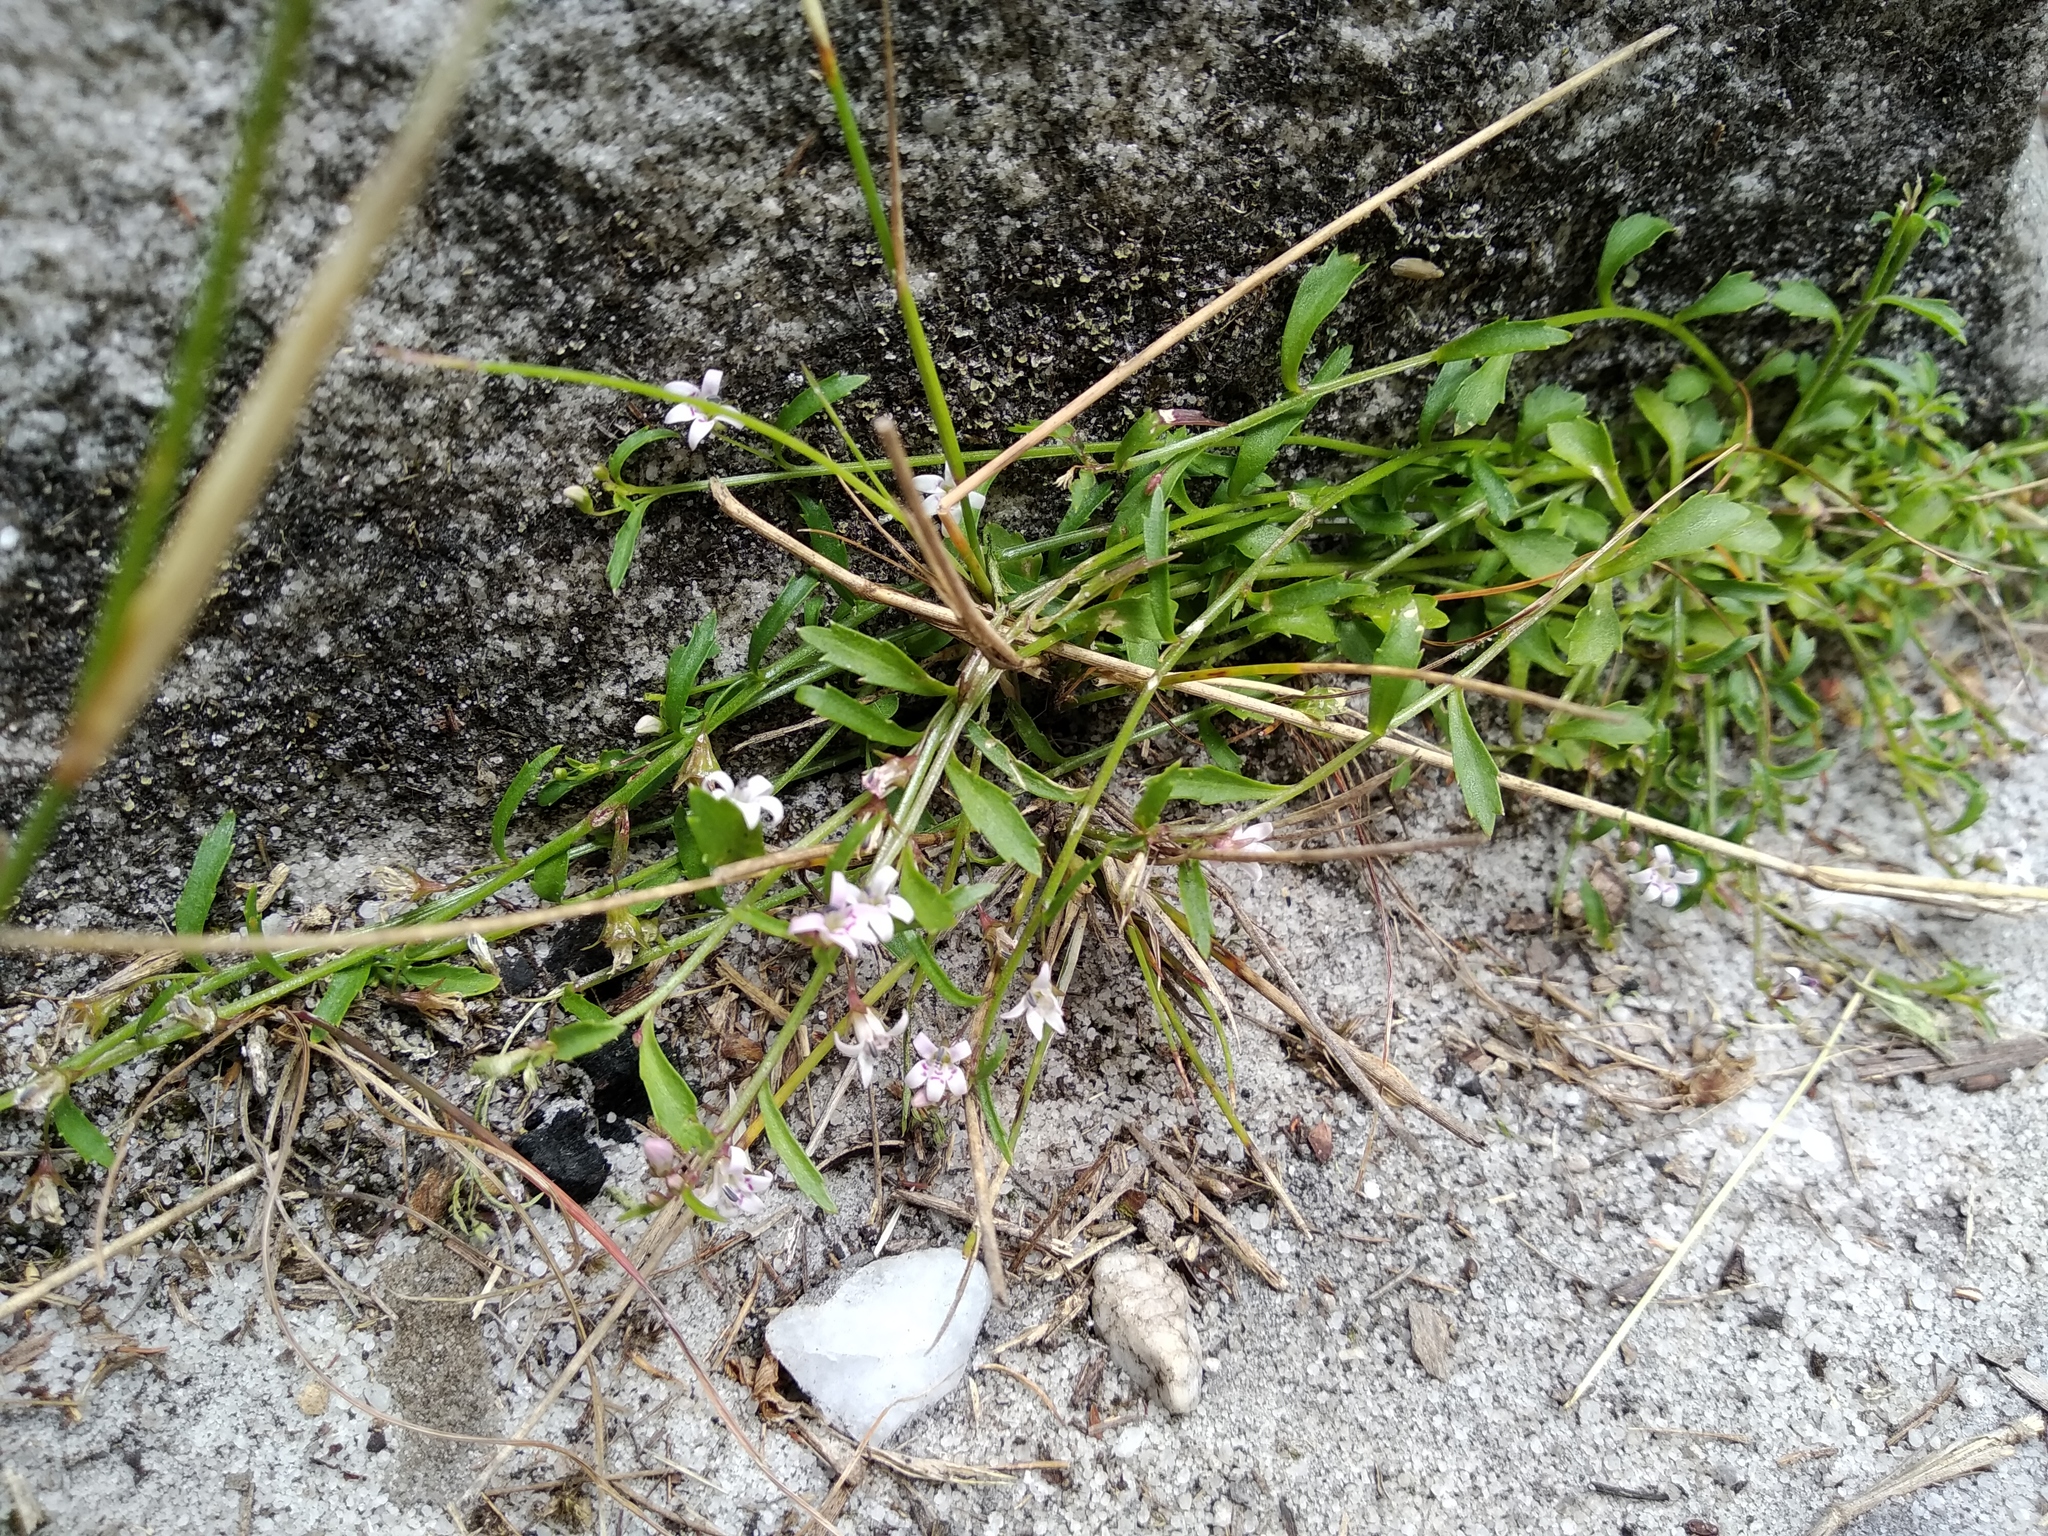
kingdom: Plantae
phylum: Tracheophyta
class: Magnoliopsida
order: Asterales
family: Campanulaceae
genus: Lobelia
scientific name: Lobelia eckloniana
